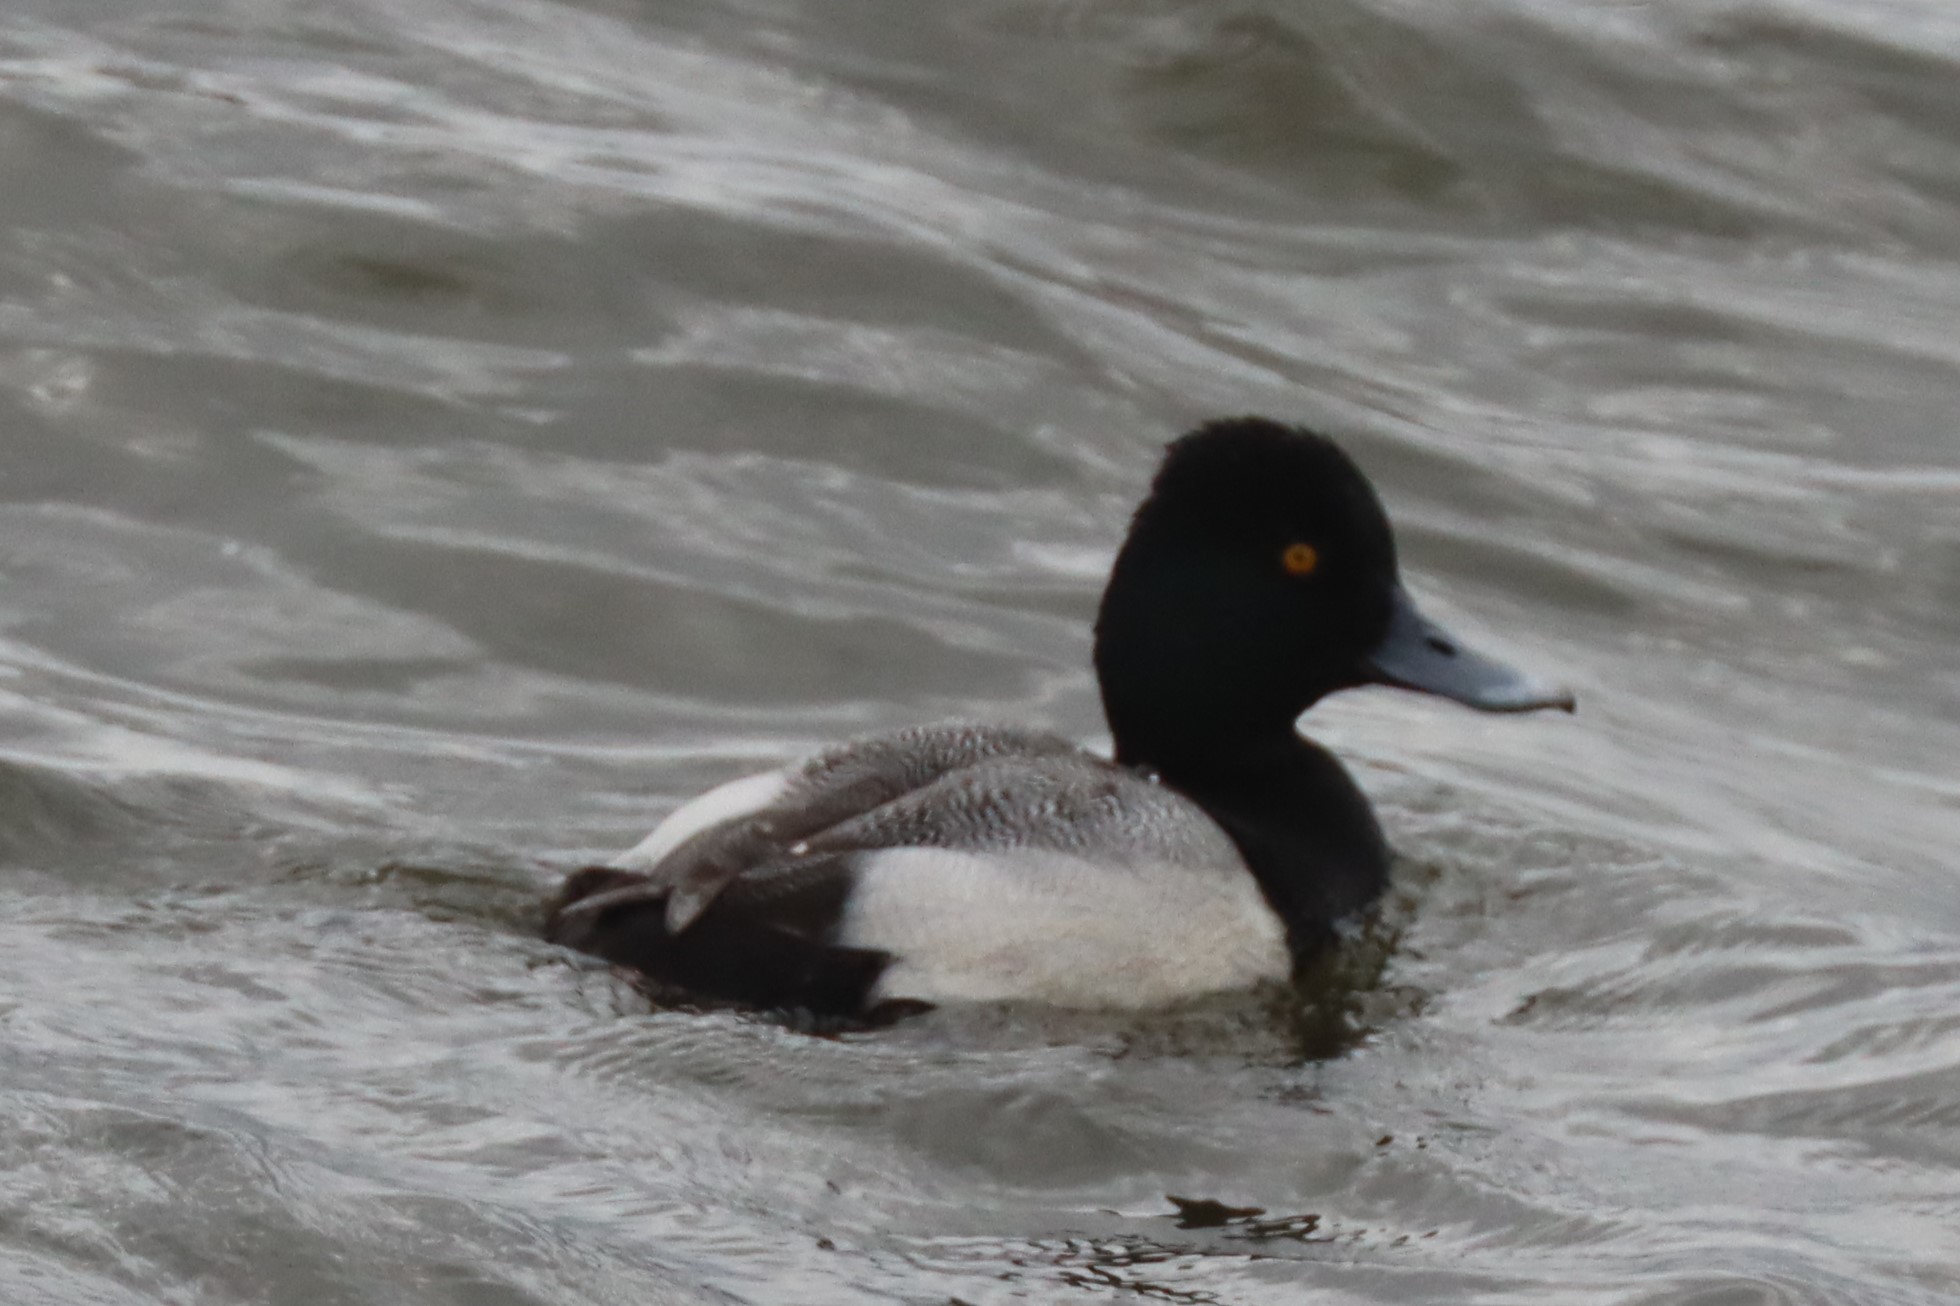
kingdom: Animalia
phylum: Chordata
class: Aves
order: Anseriformes
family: Anatidae
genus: Aythya
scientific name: Aythya affinis
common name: Lesser scaup
